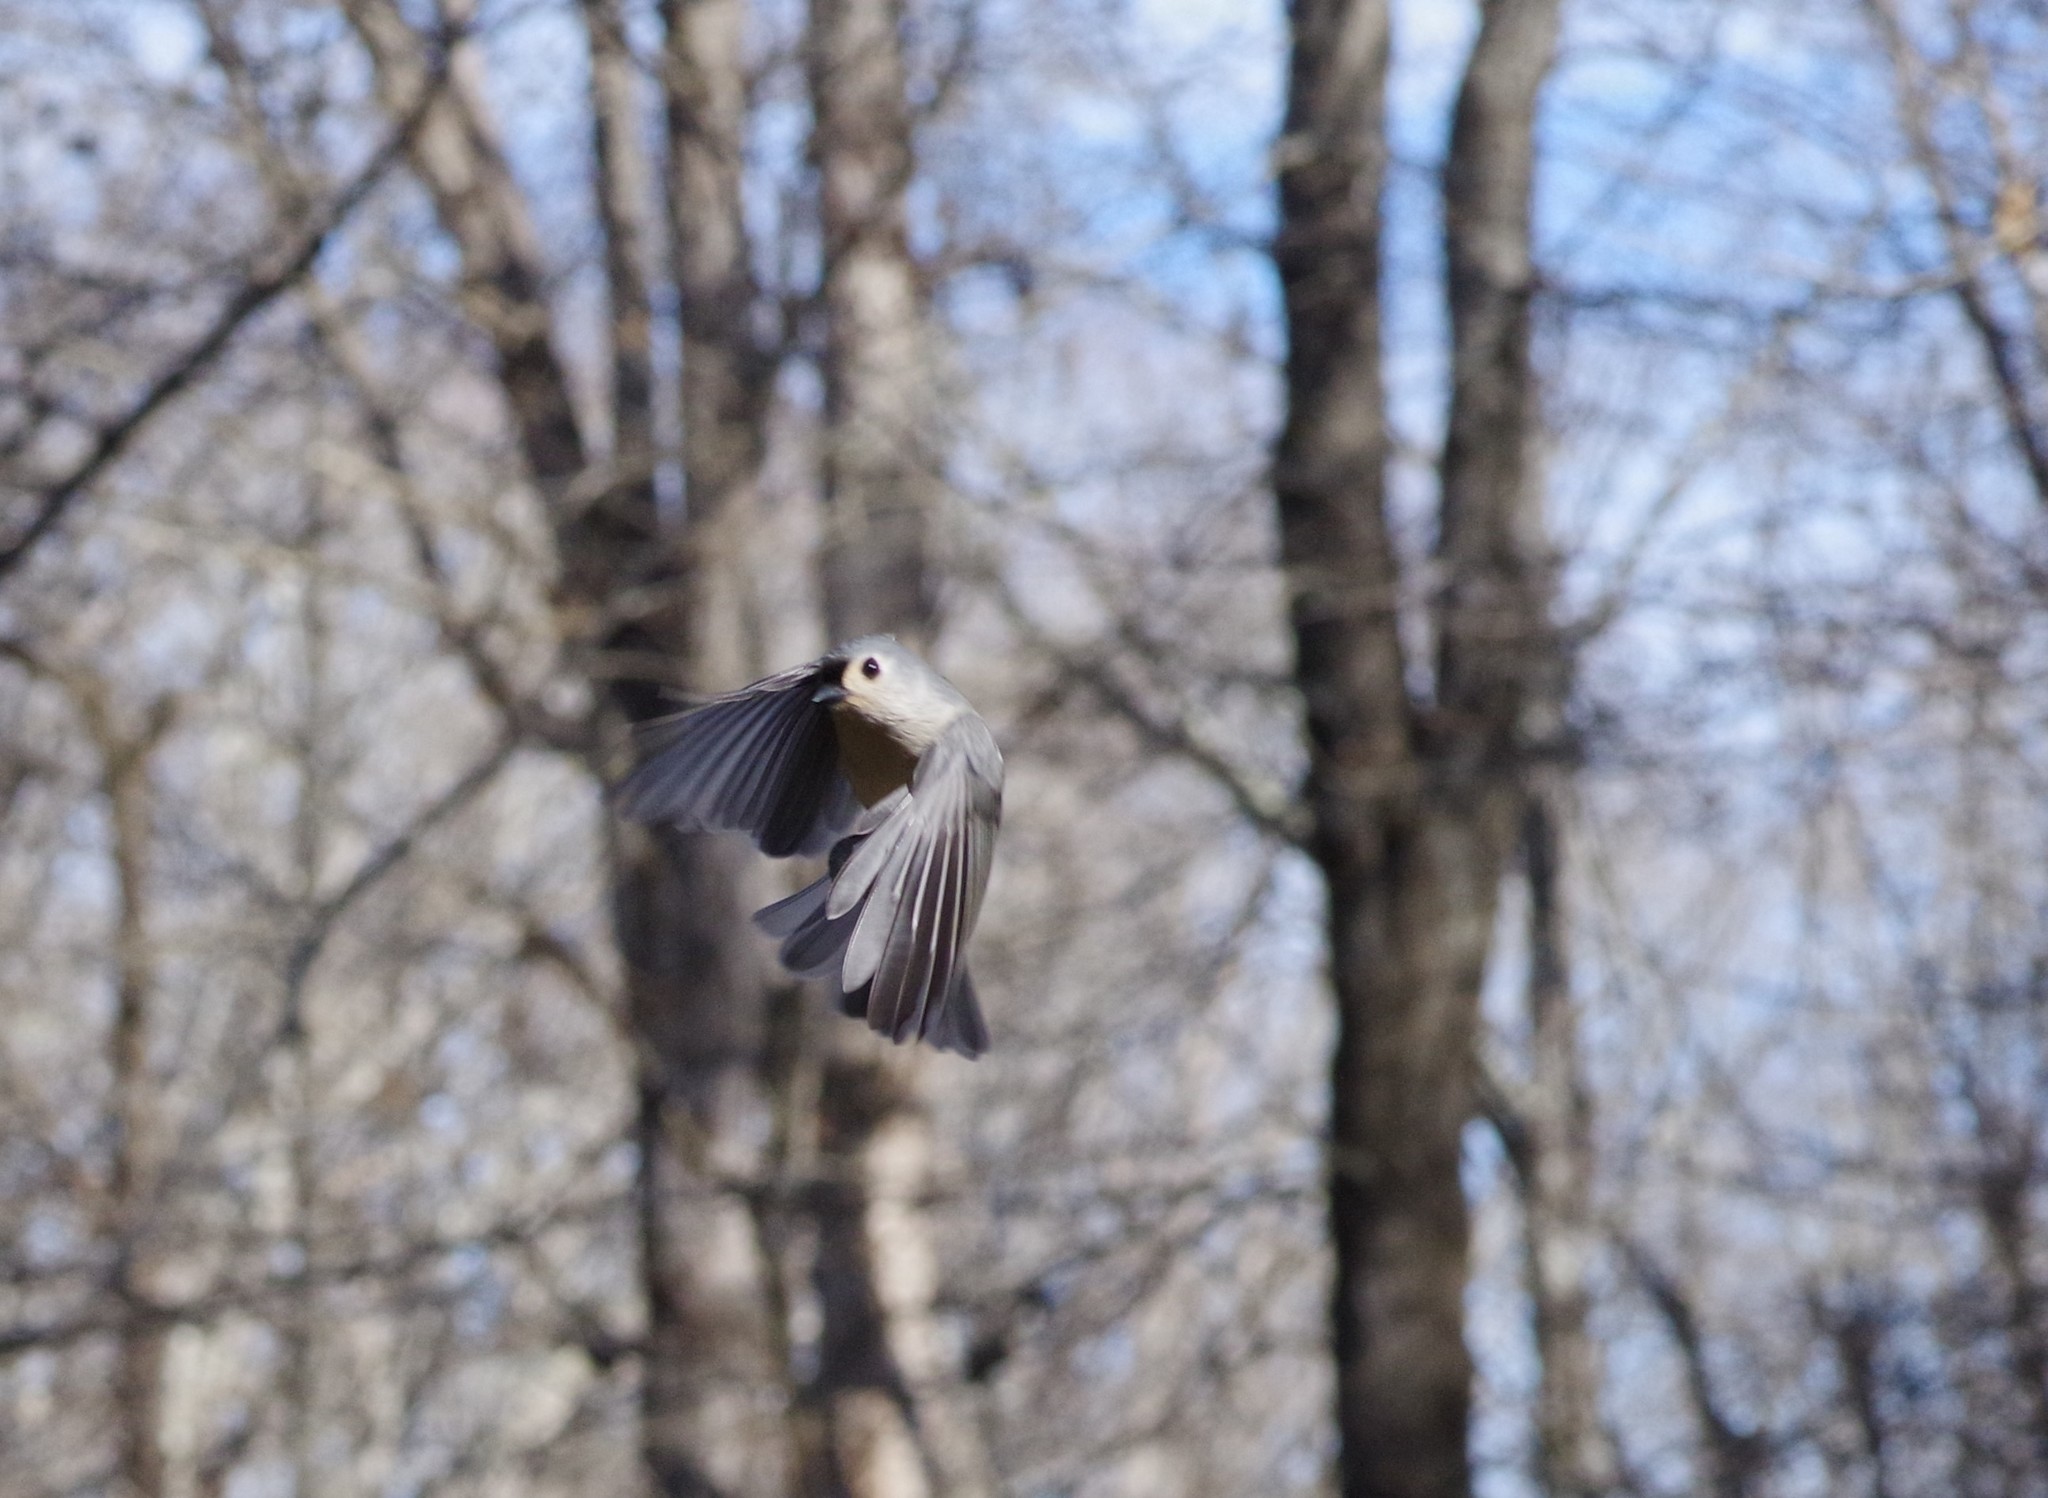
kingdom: Animalia
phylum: Chordata
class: Aves
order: Passeriformes
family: Paridae
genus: Baeolophus
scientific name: Baeolophus bicolor
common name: Tufted titmouse
